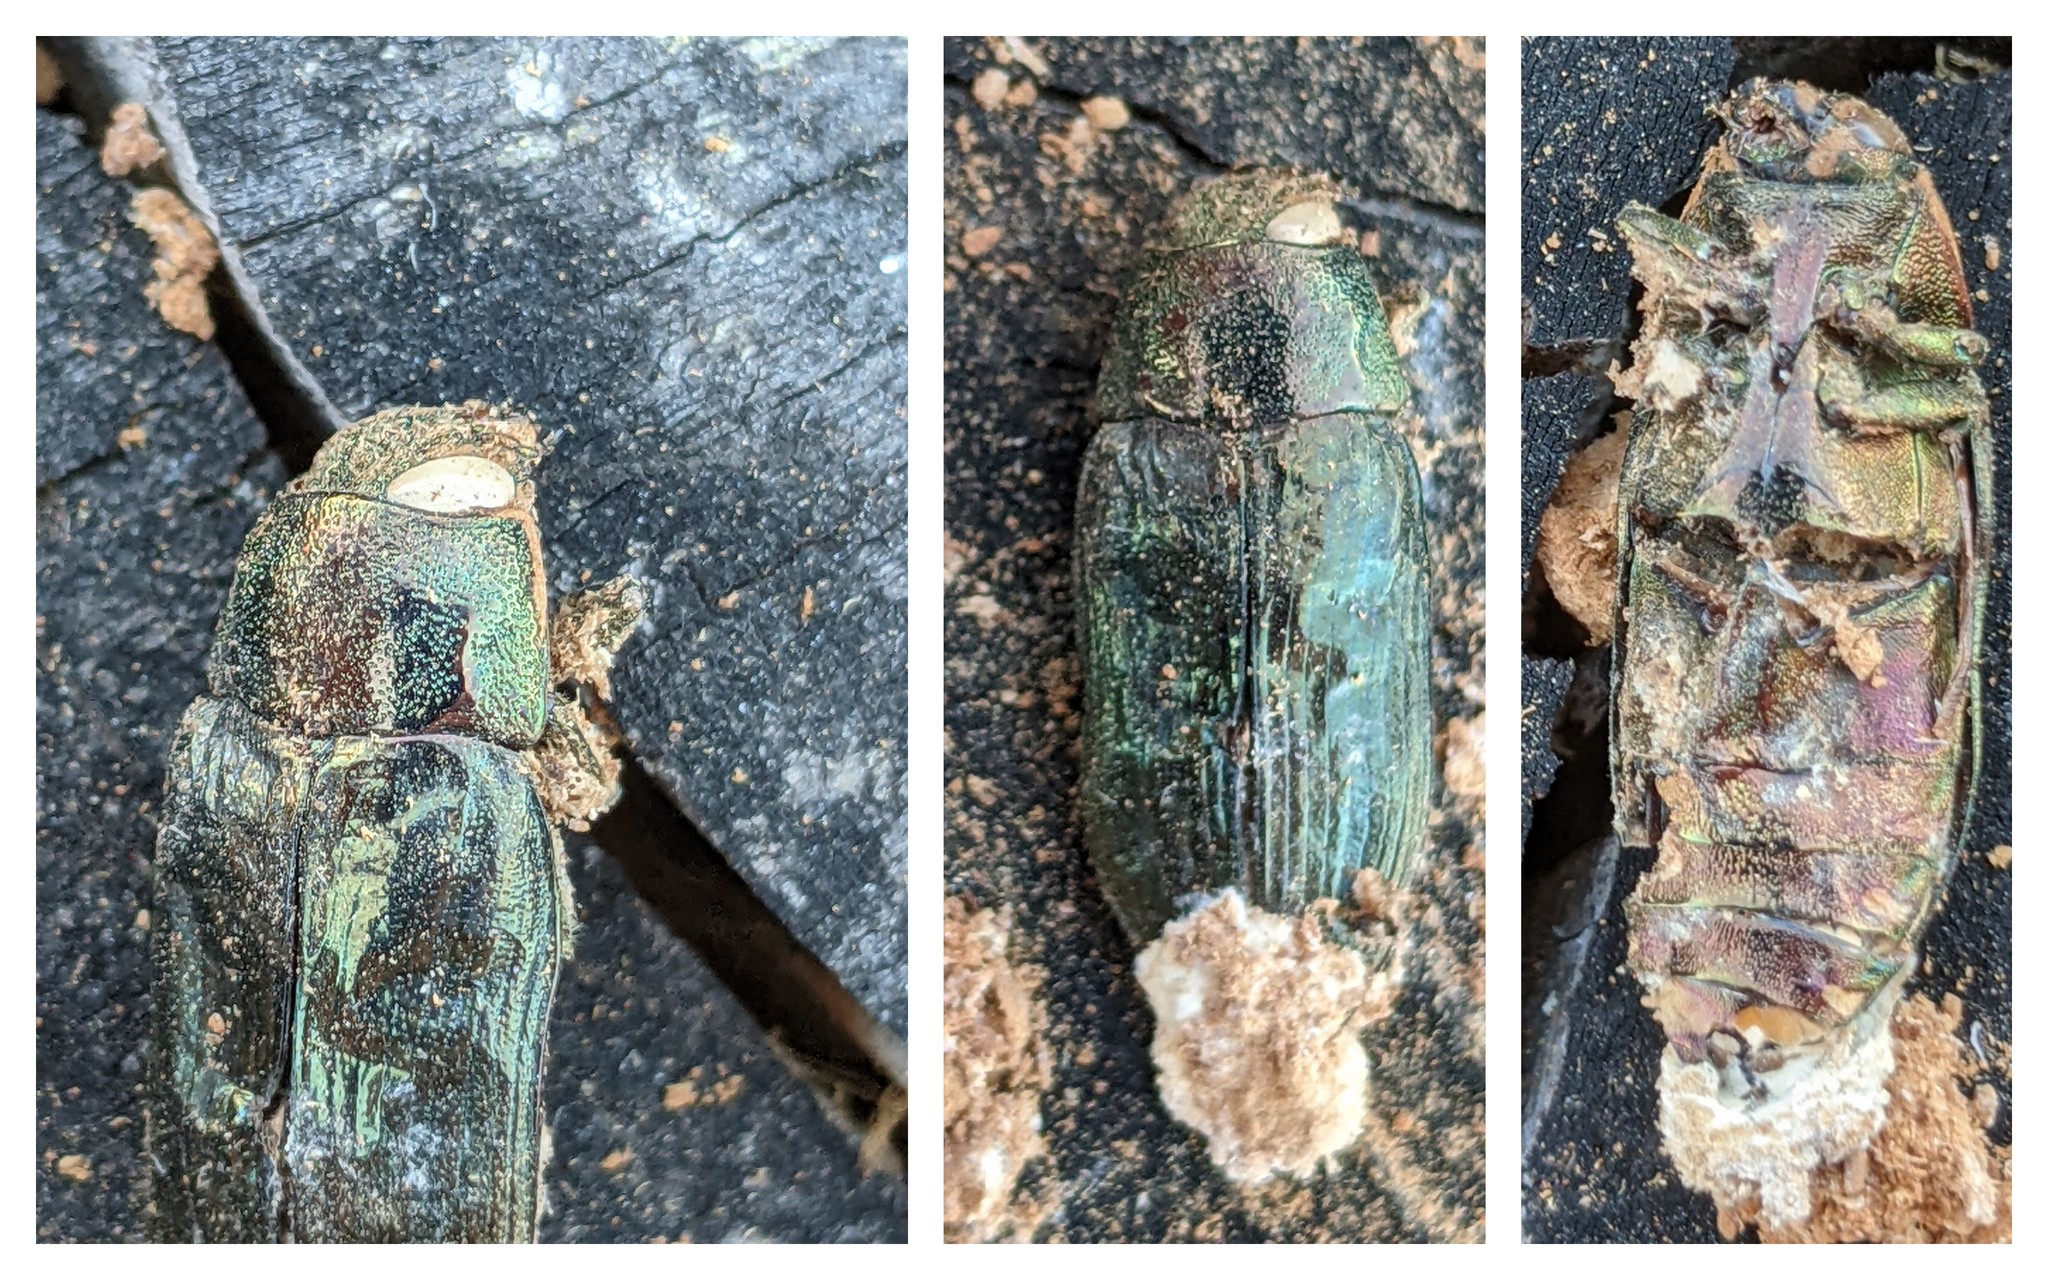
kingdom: Animalia
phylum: Arthropoda
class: Insecta
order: Coleoptera
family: Buprestidae
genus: Buprestis
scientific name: Buprestis haemorrhoidalis
